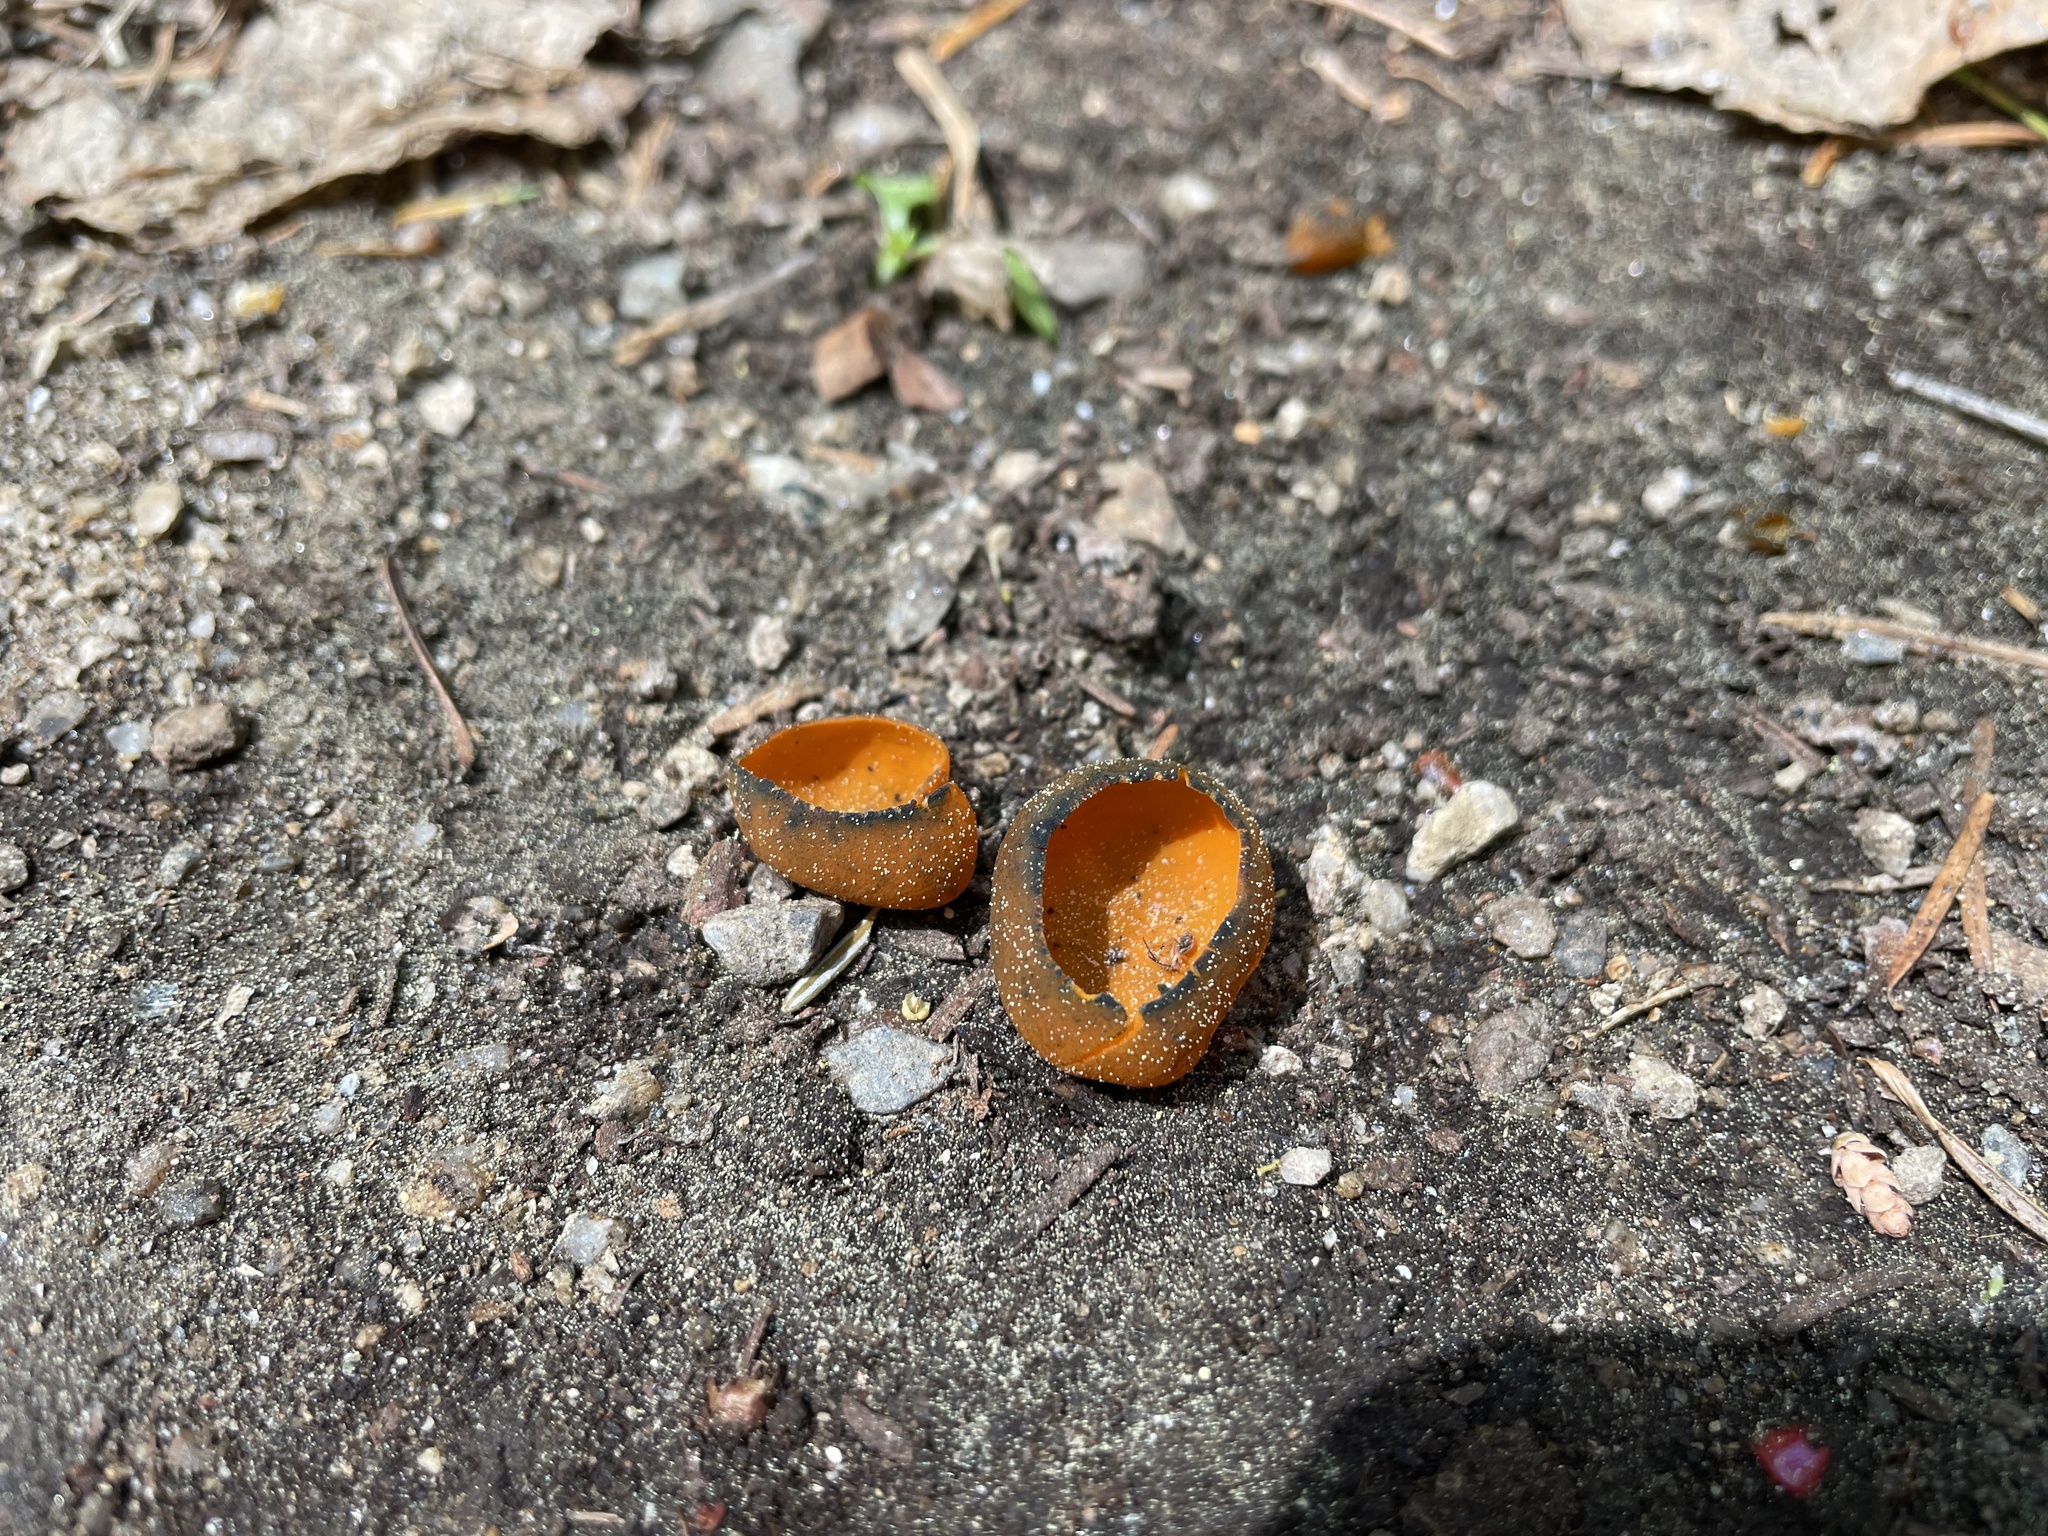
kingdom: Fungi
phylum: Ascomycota
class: Pezizomycetes
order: Pezizales
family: Caloscyphaceae
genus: Caloscypha
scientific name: Caloscypha fulgens
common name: Golden cup
